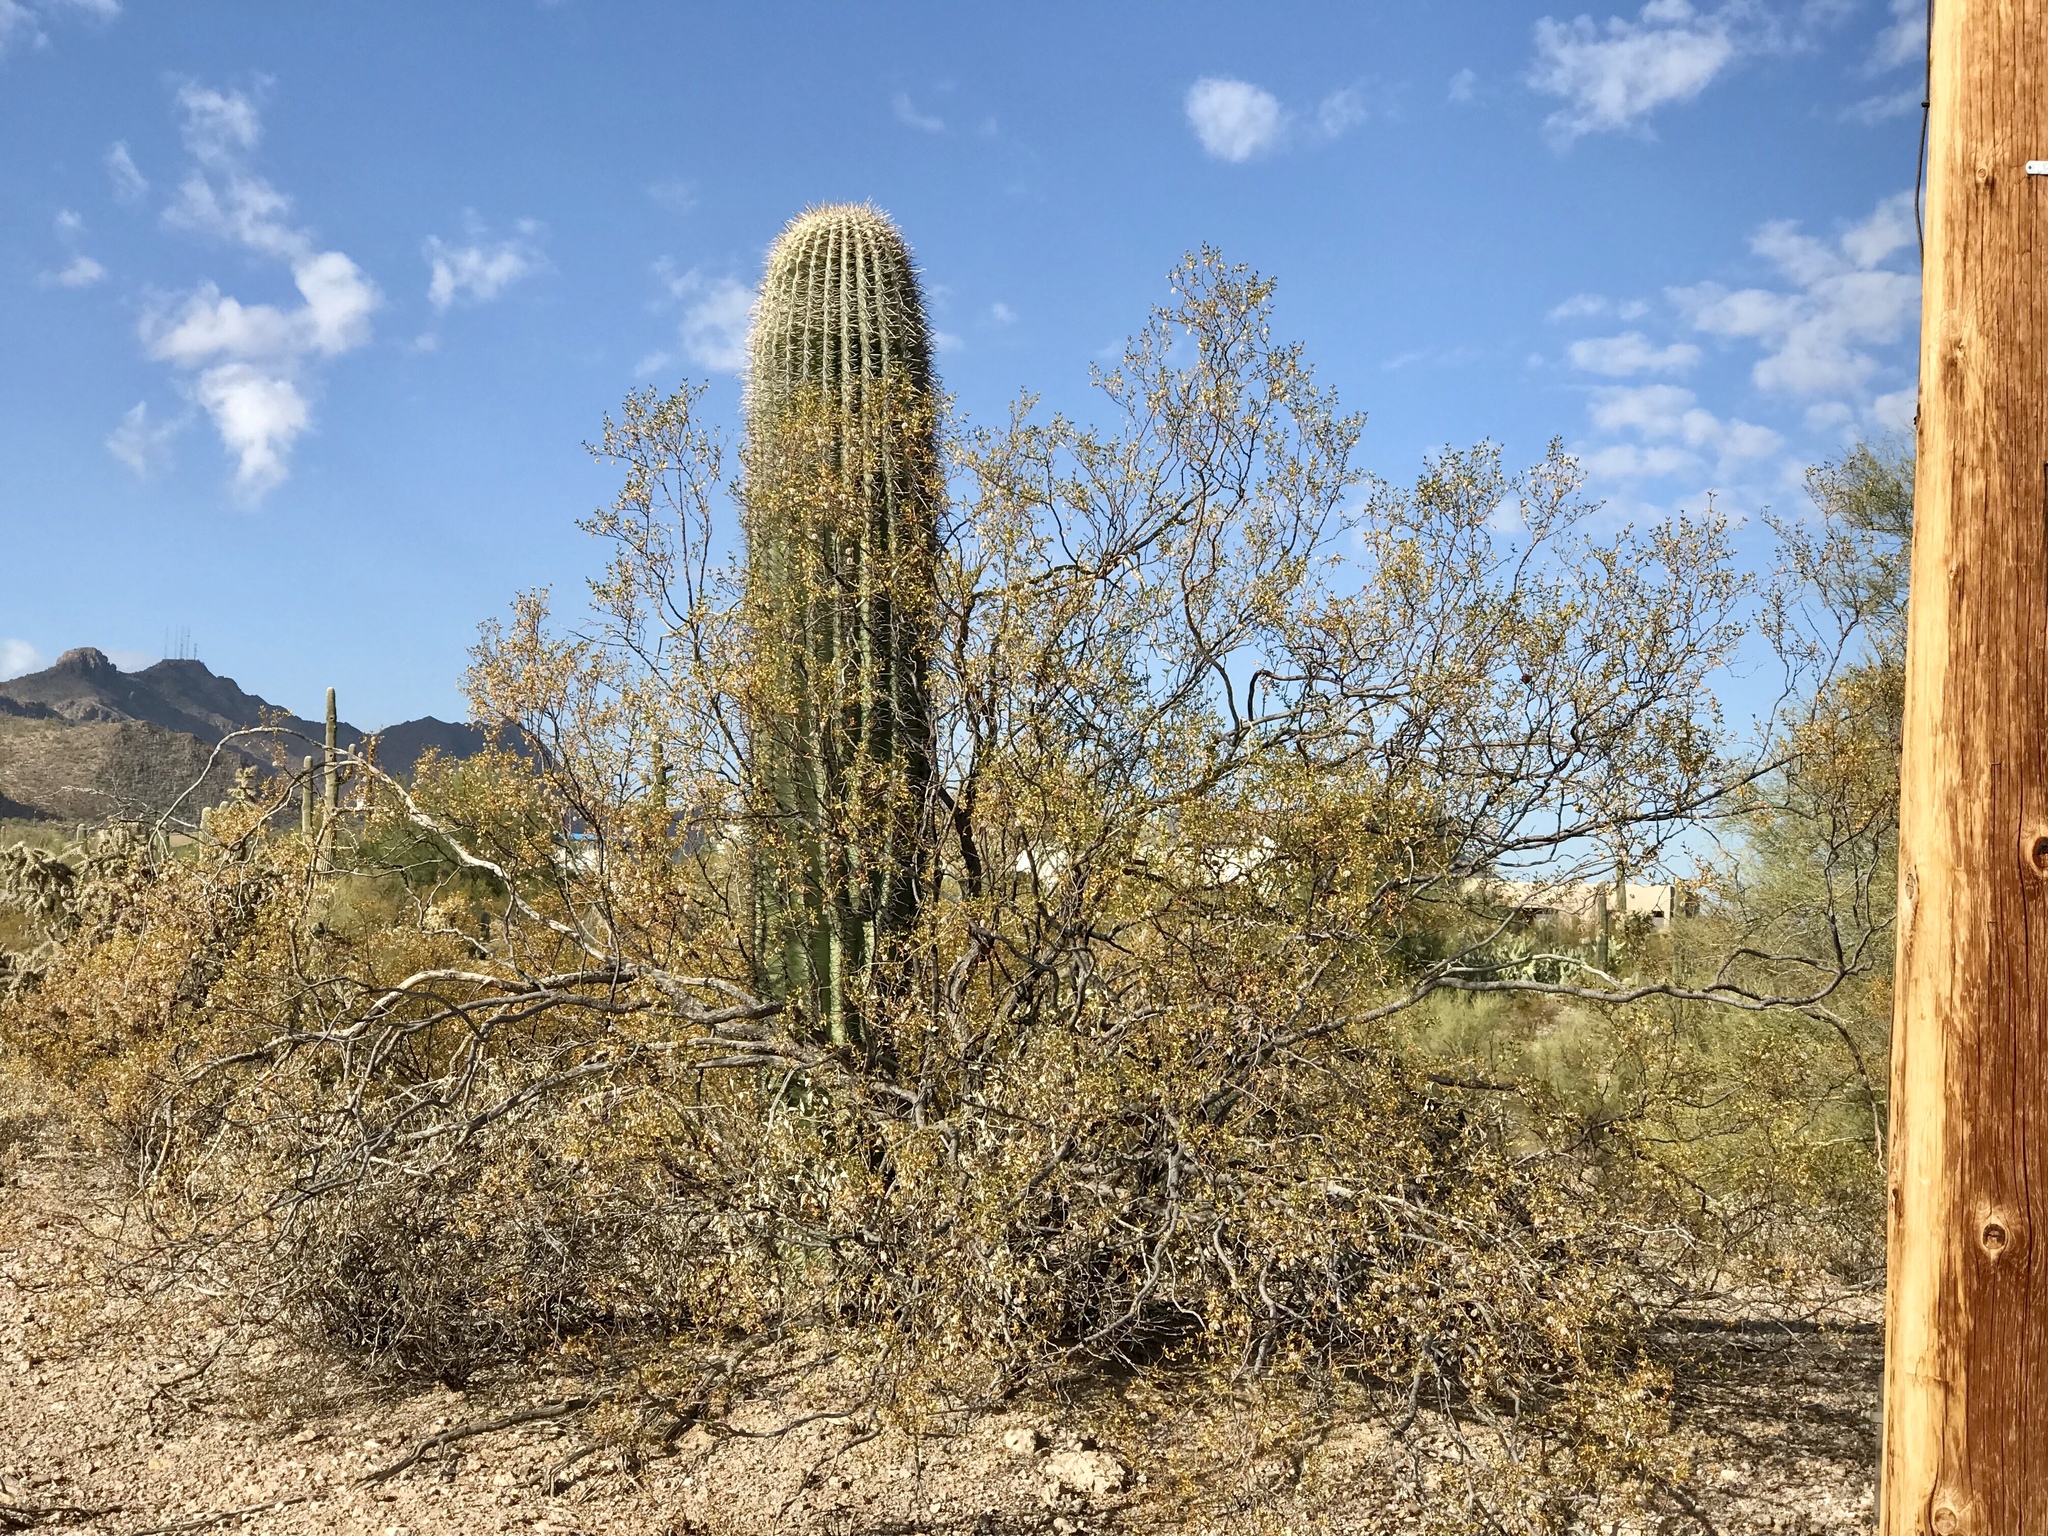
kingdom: Plantae
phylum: Tracheophyta
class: Magnoliopsida
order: Zygophyllales
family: Zygophyllaceae
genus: Larrea
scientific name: Larrea tridentata
